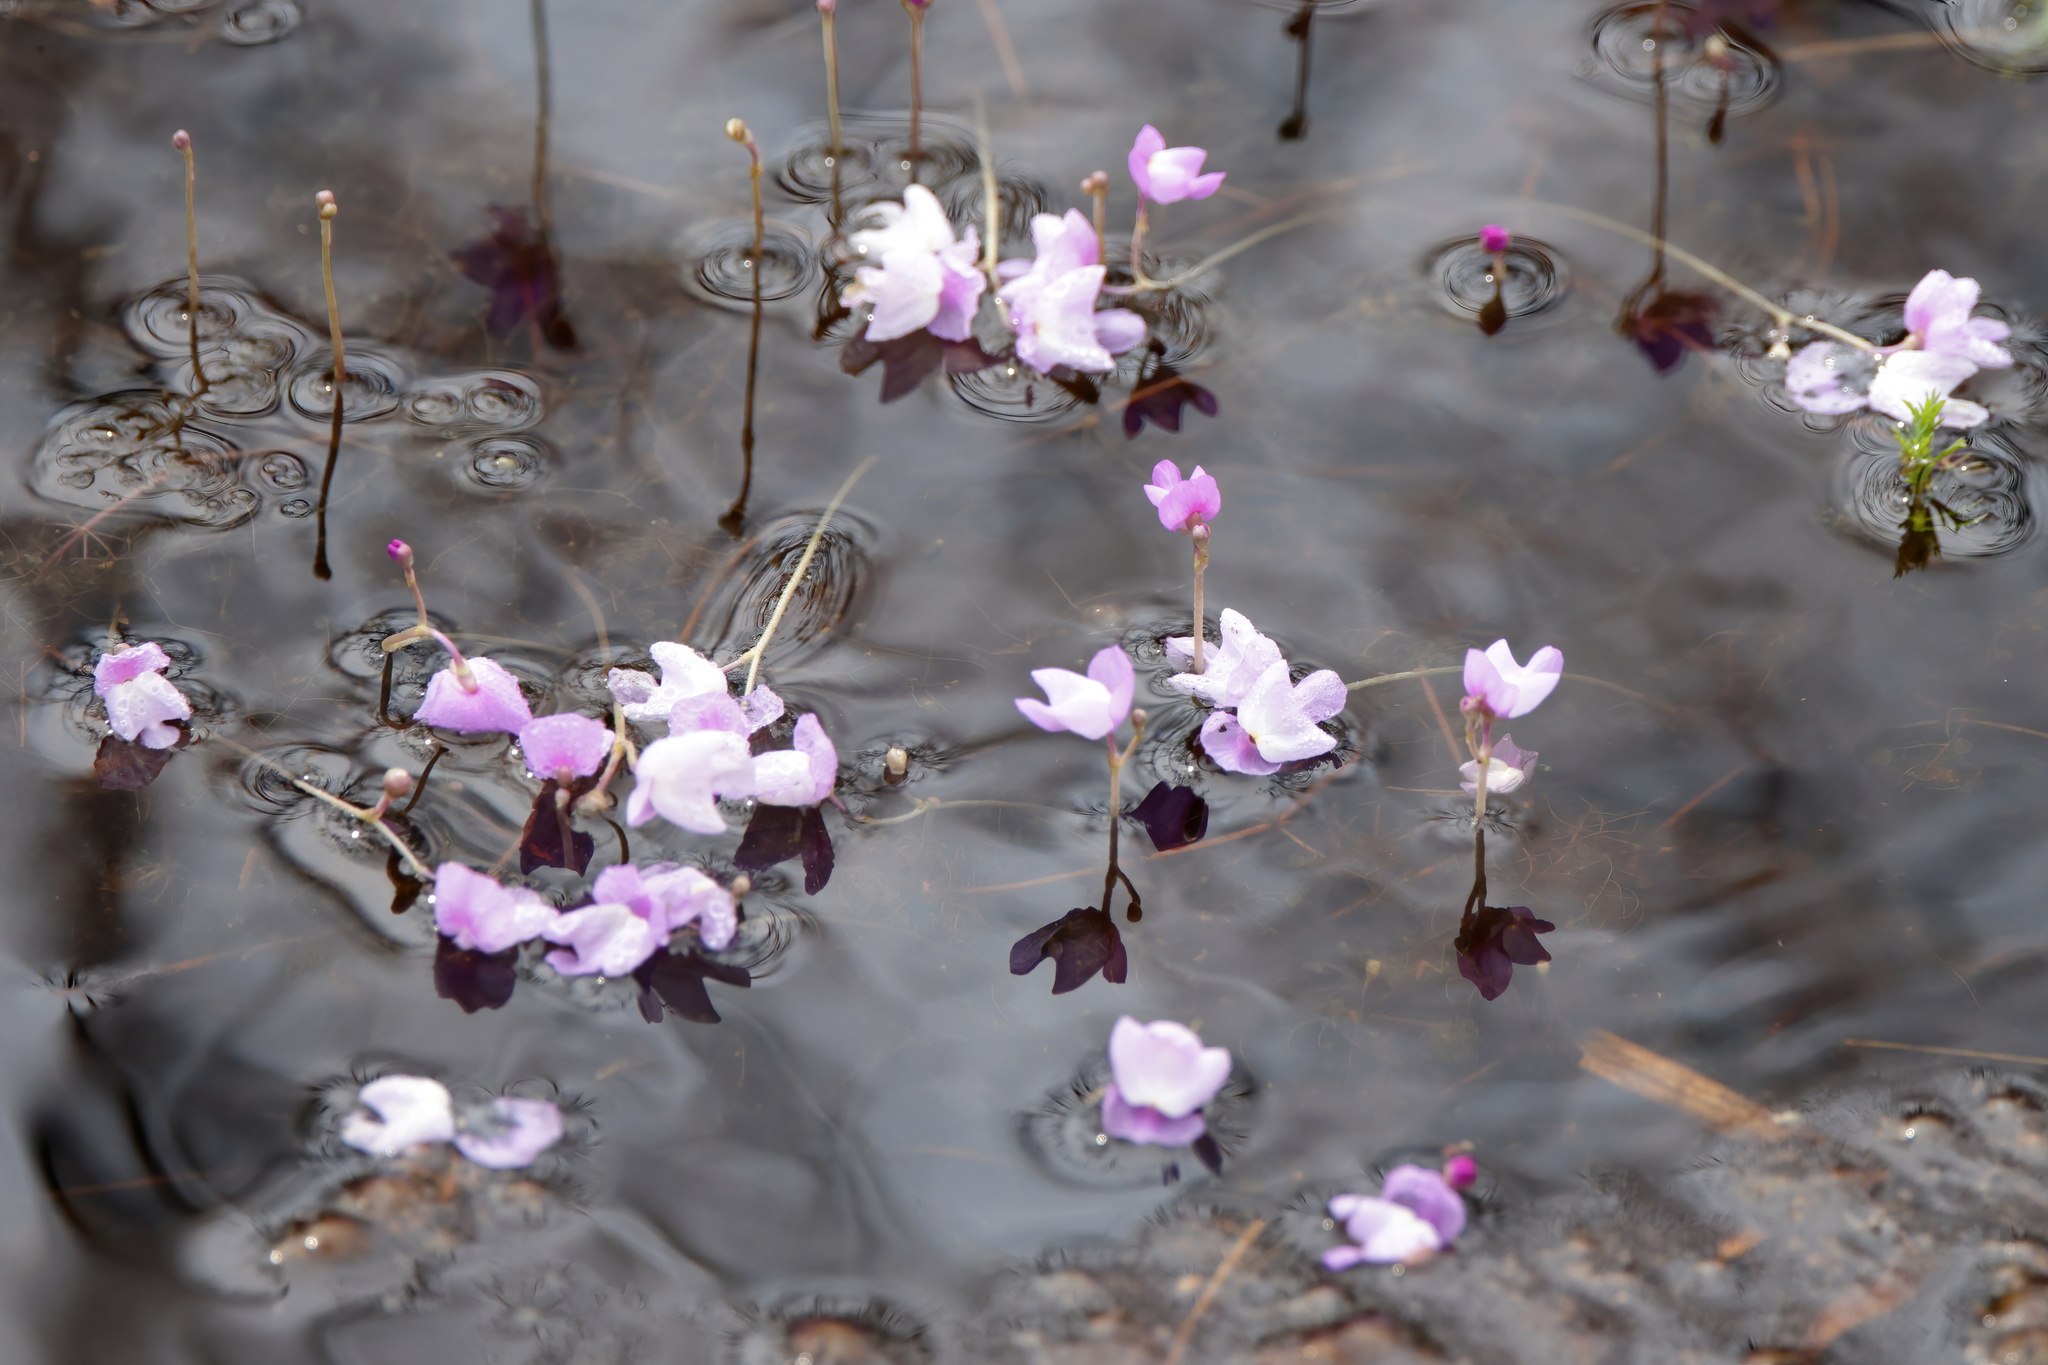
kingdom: Plantae
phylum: Tracheophyta
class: Magnoliopsida
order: Lamiales
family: Lentibulariaceae
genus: Utricularia
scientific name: Utricularia purpurea
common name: Eastern purple bladderwort
